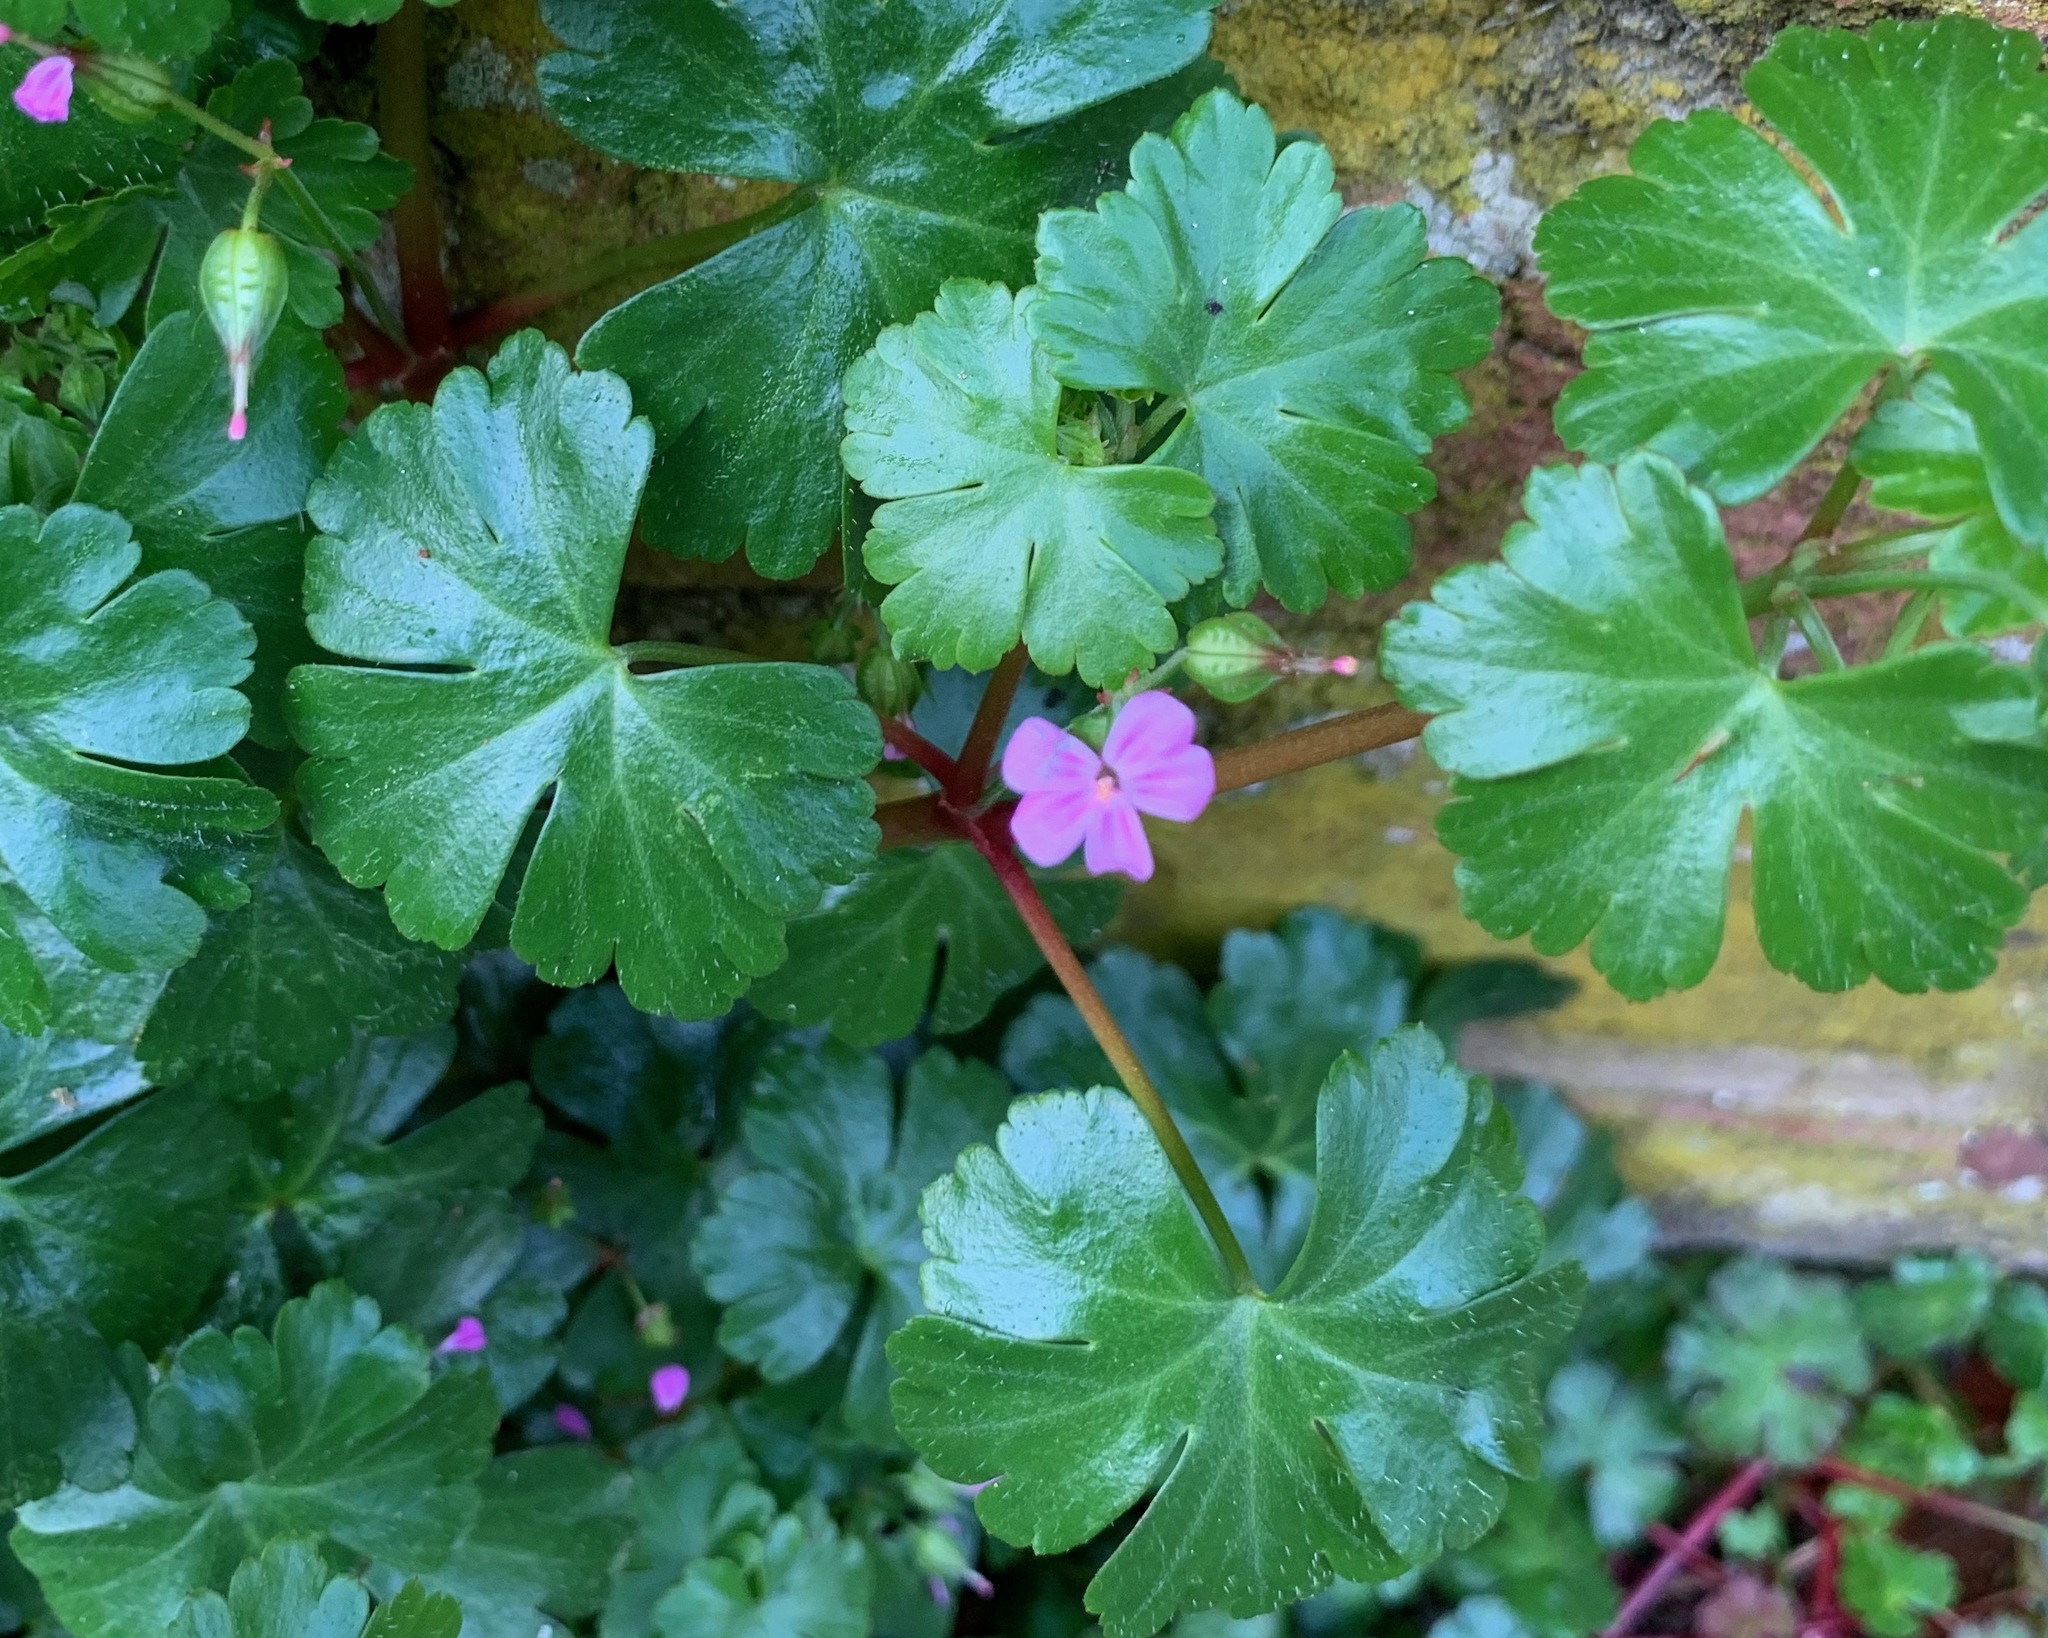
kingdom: Plantae
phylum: Tracheophyta
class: Magnoliopsida
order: Geraniales
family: Geraniaceae
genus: Geranium
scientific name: Geranium lucidum
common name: Shining crane's-bill
